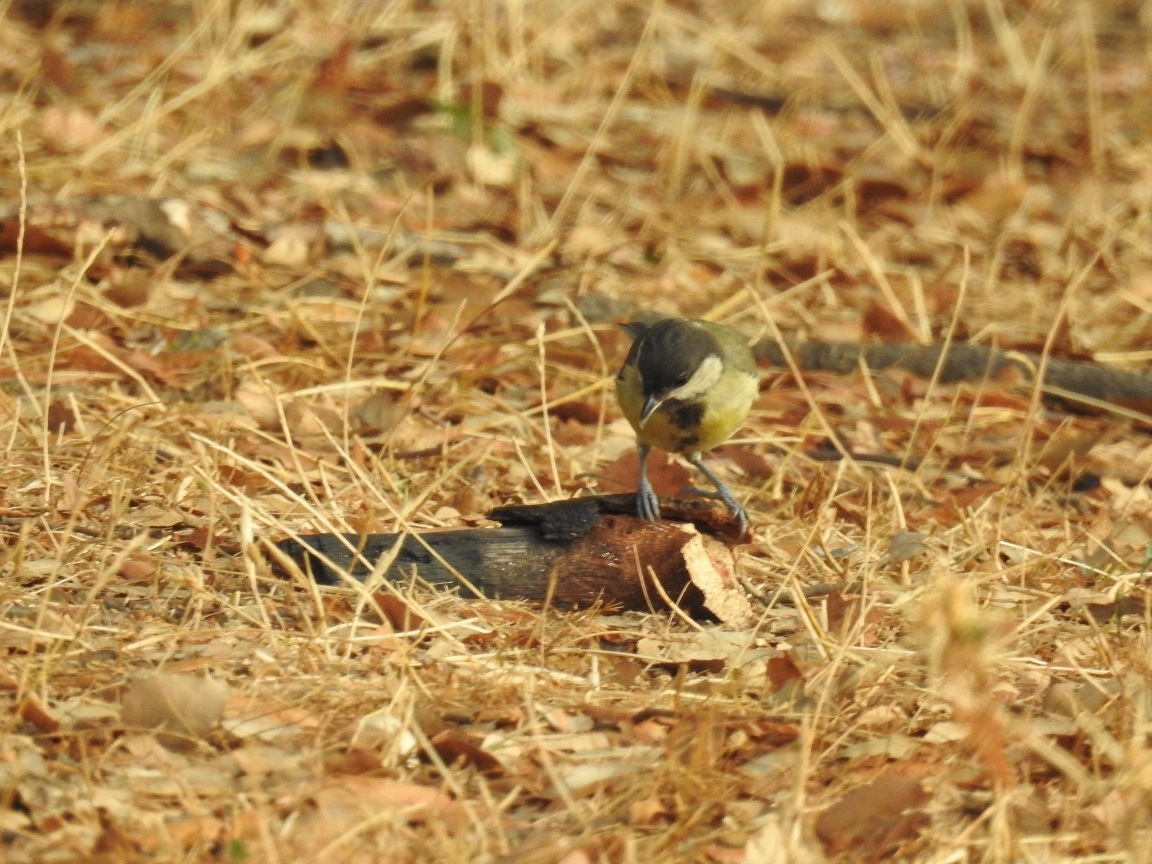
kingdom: Animalia
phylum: Chordata
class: Aves
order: Passeriformes
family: Paridae
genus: Parus
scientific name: Parus major
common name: Great tit
